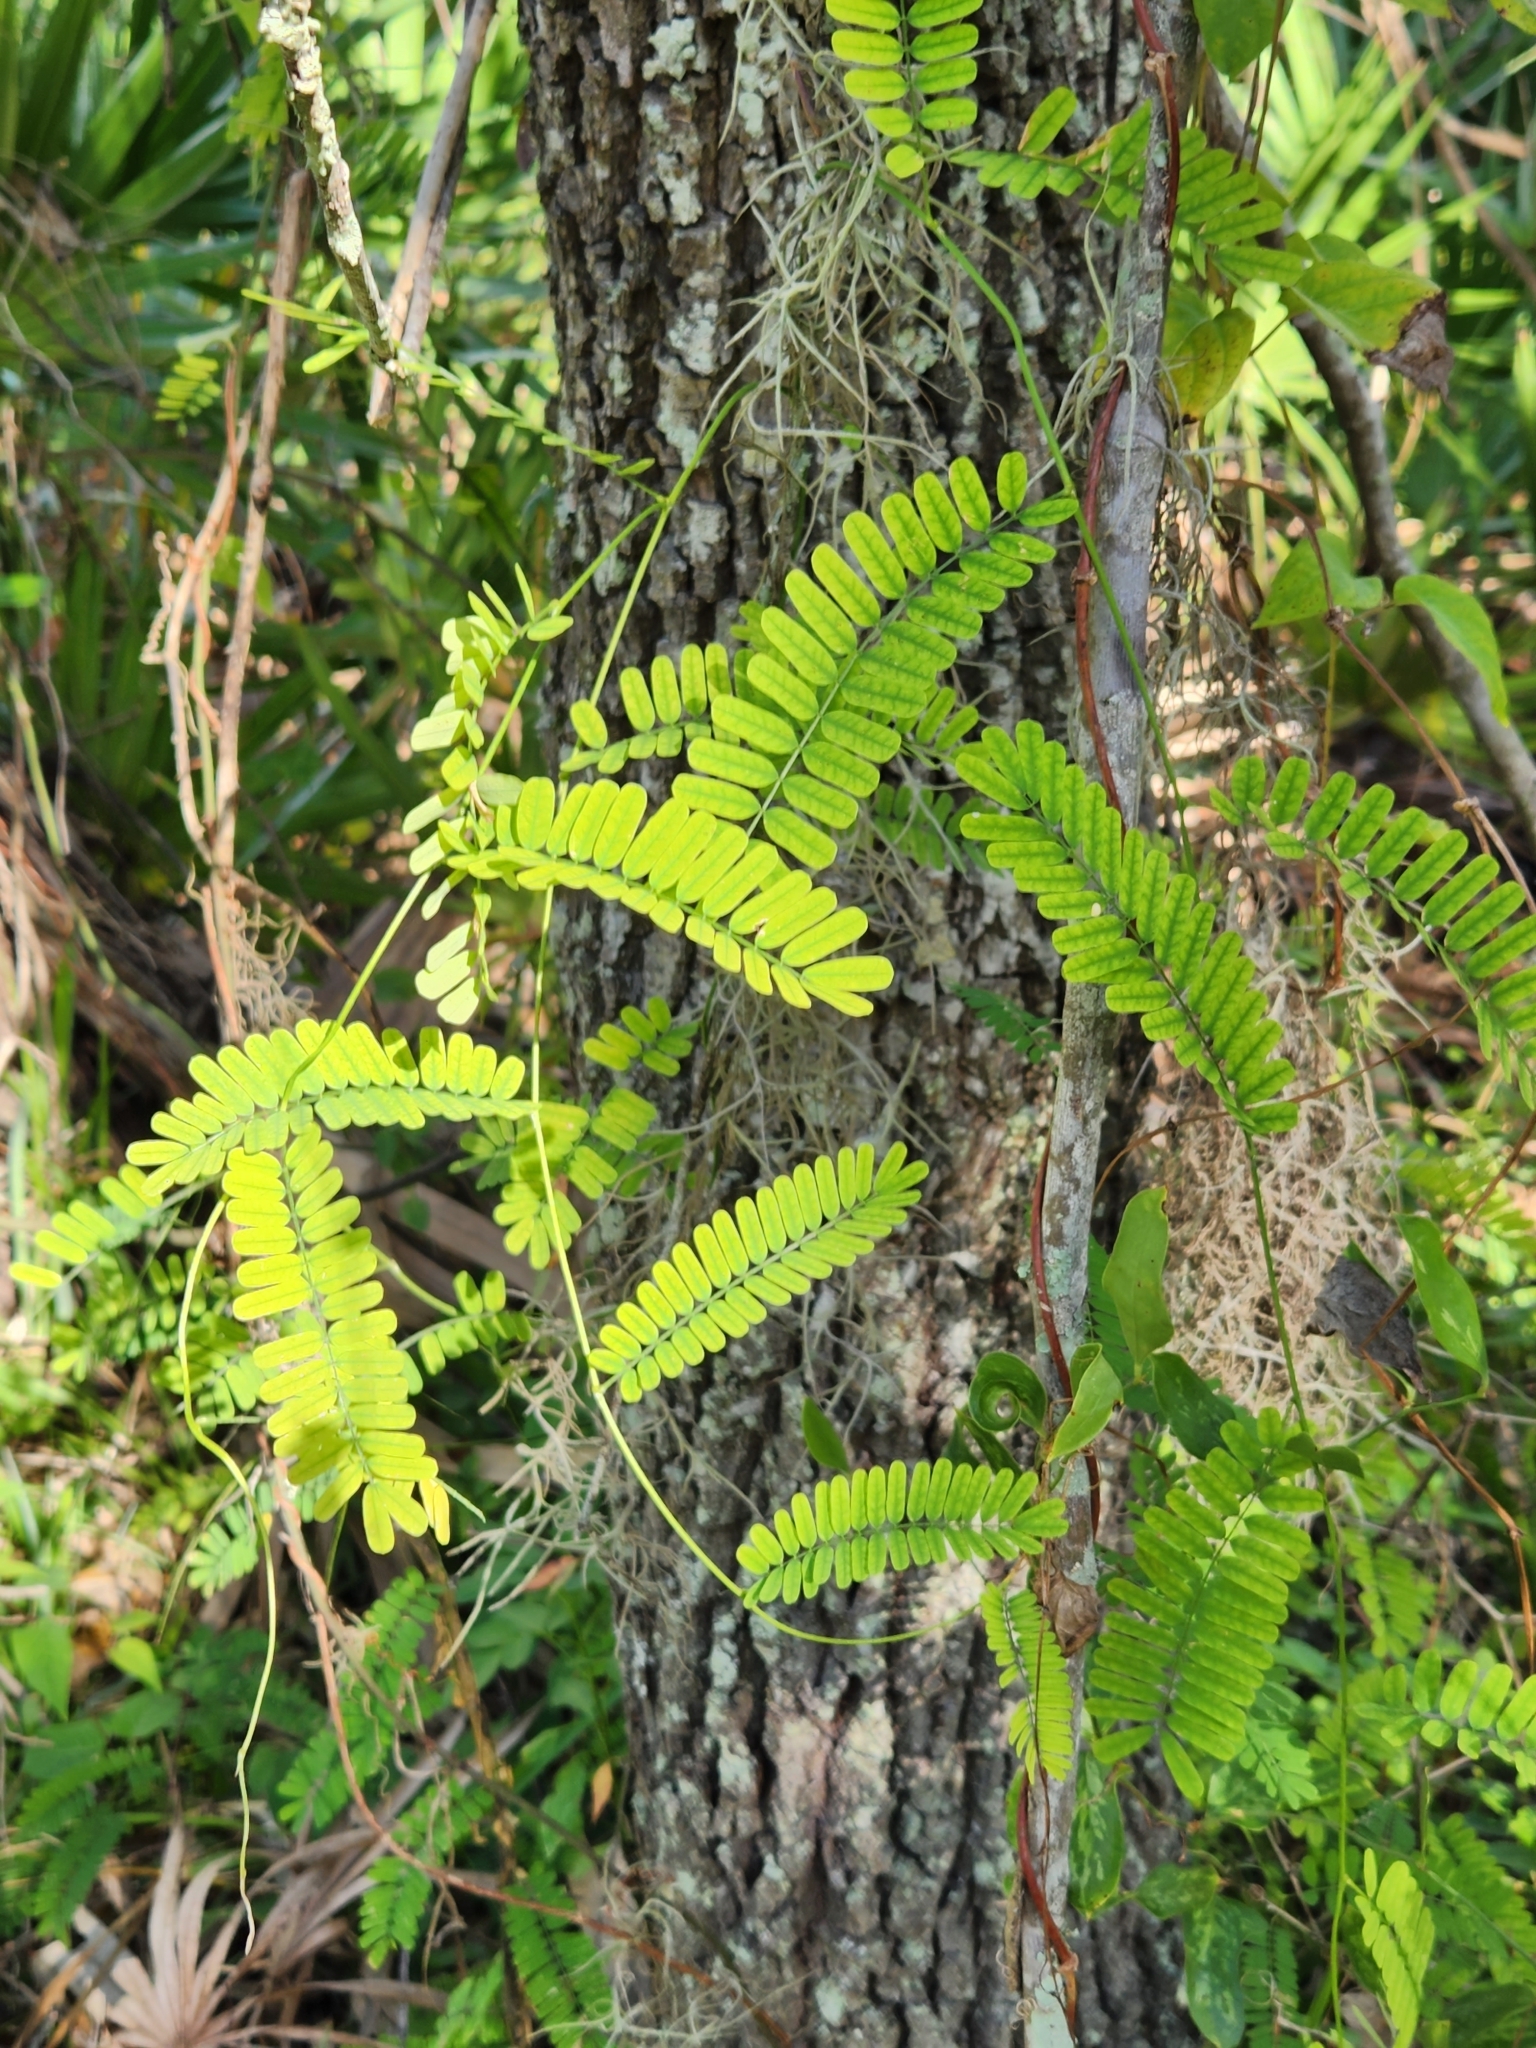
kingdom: Plantae
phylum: Tracheophyta
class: Magnoliopsida
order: Fabales
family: Fabaceae
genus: Abrus
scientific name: Abrus precatorius
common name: Rosarypea
